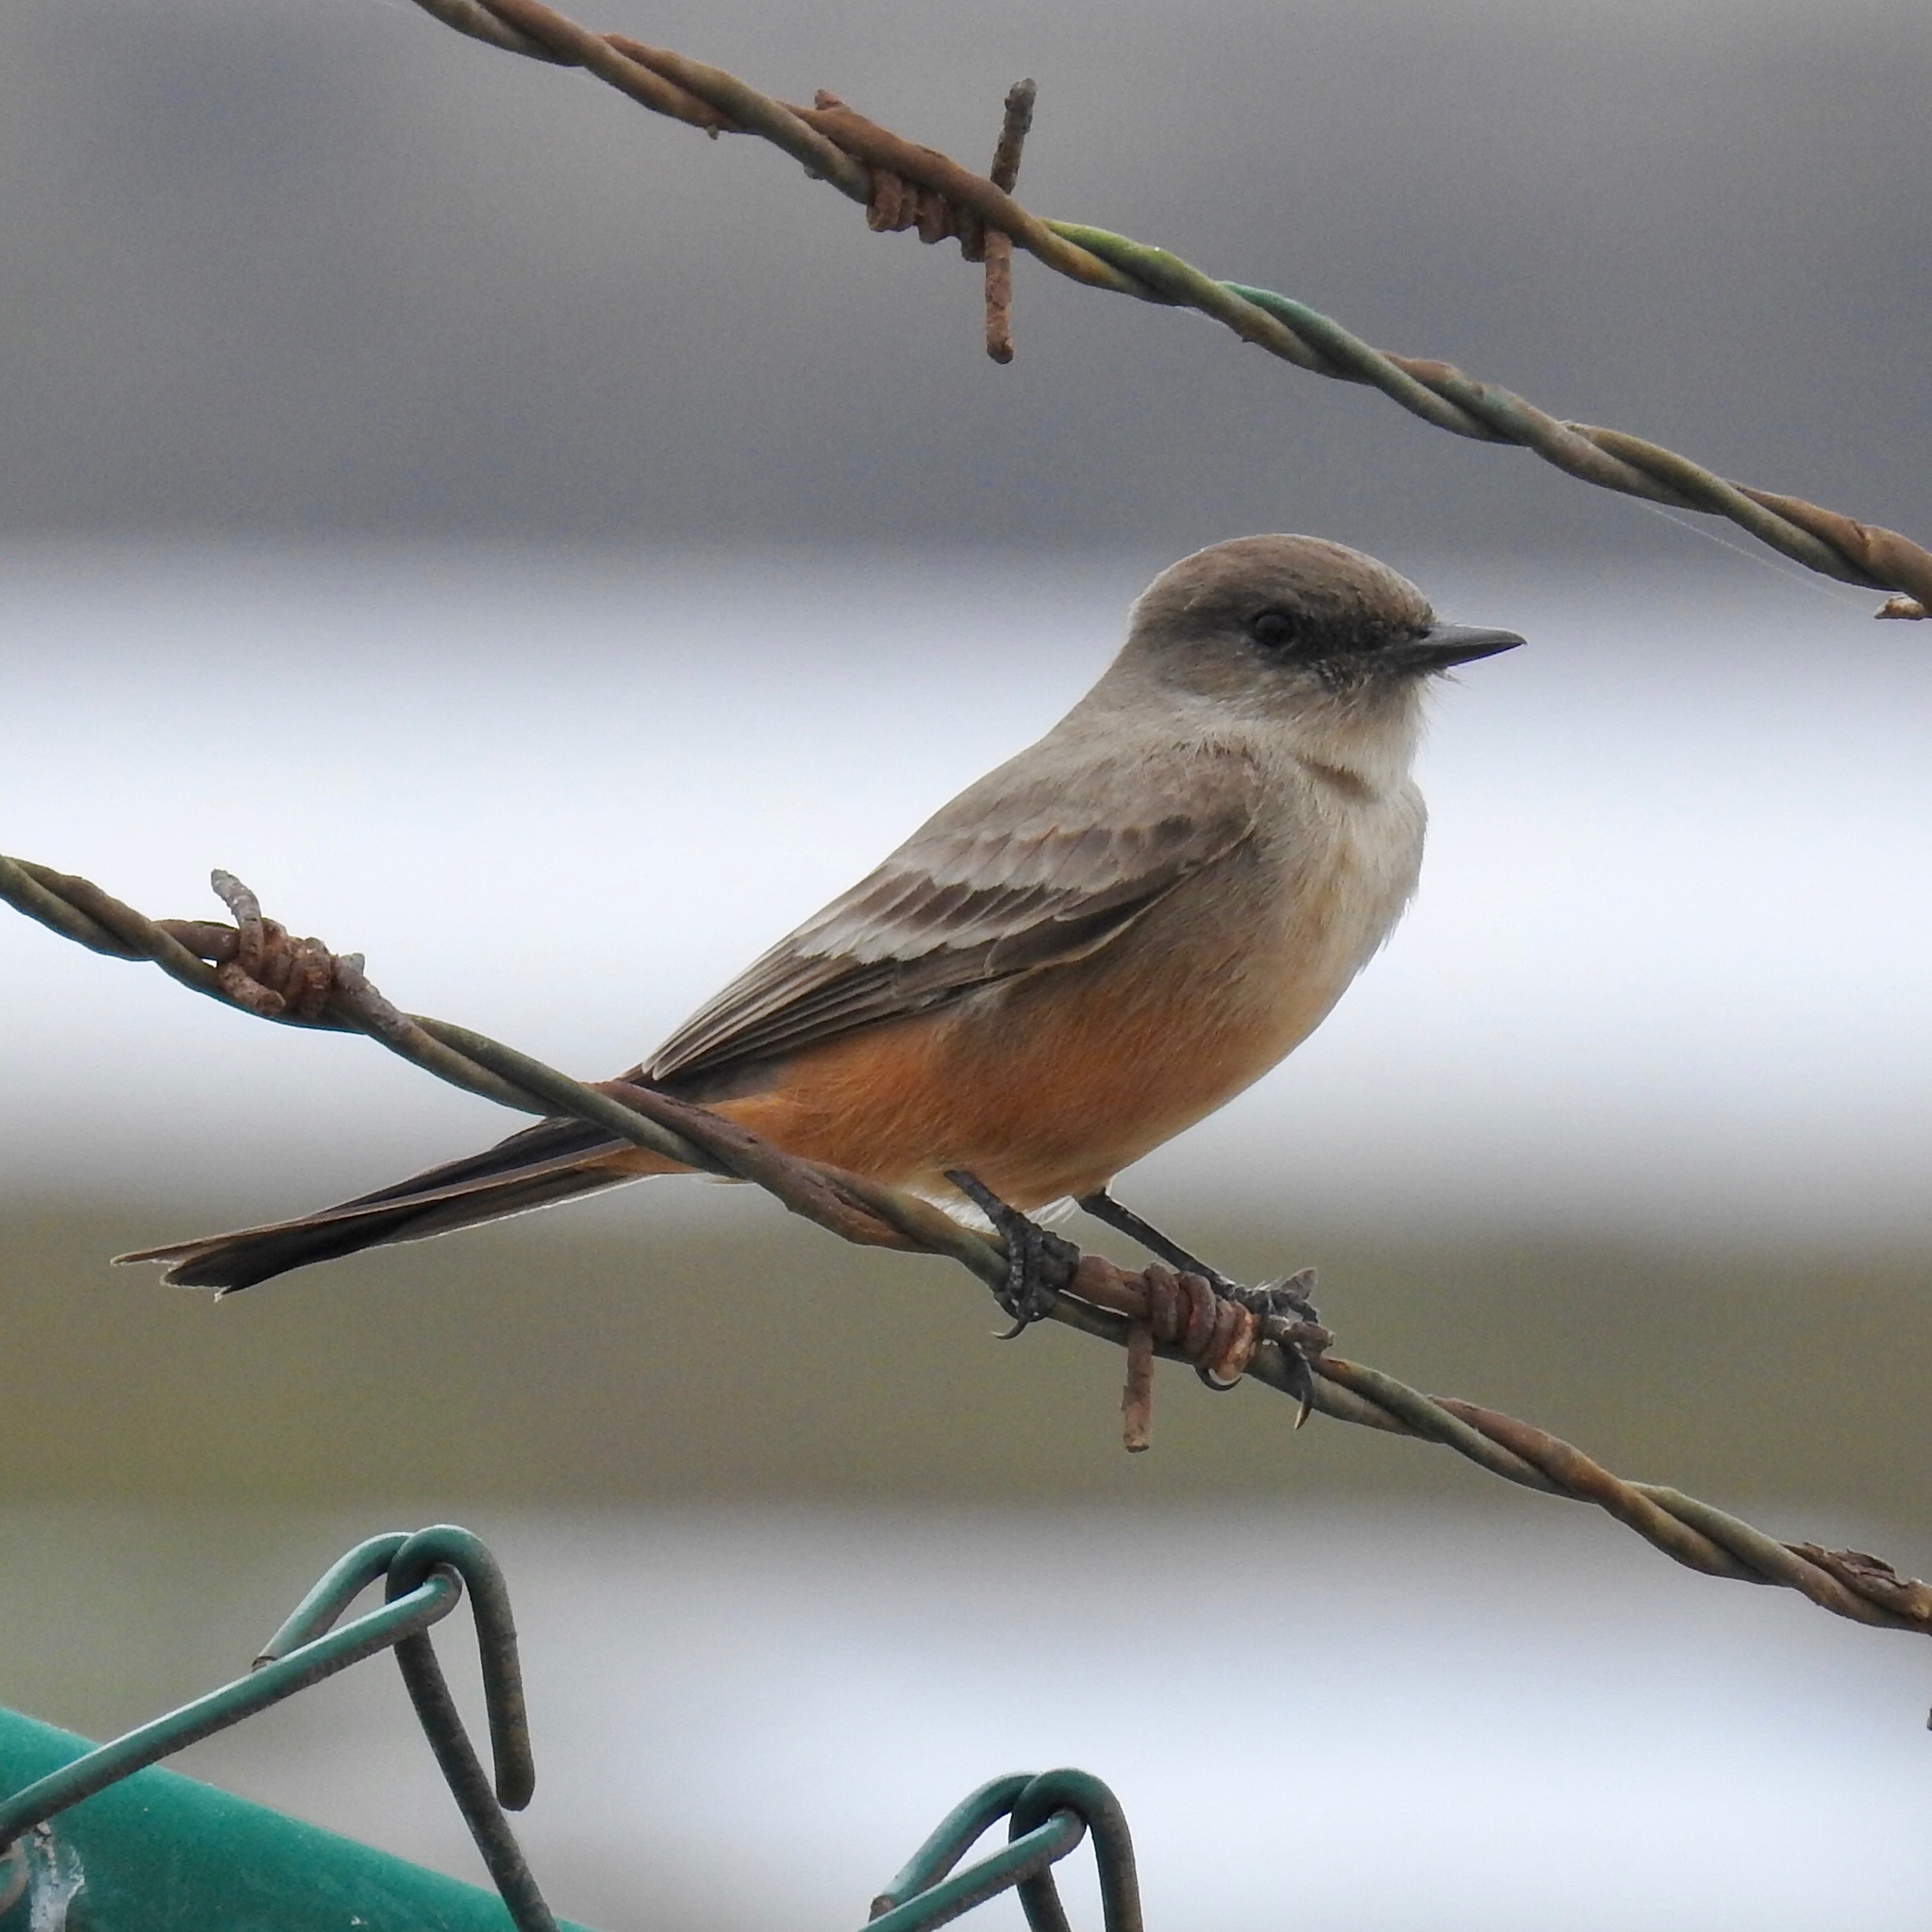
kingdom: Animalia
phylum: Chordata
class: Aves
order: Passeriformes
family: Tyrannidae
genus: Sayornis
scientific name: Sayornis saya
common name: Say's phoebe
